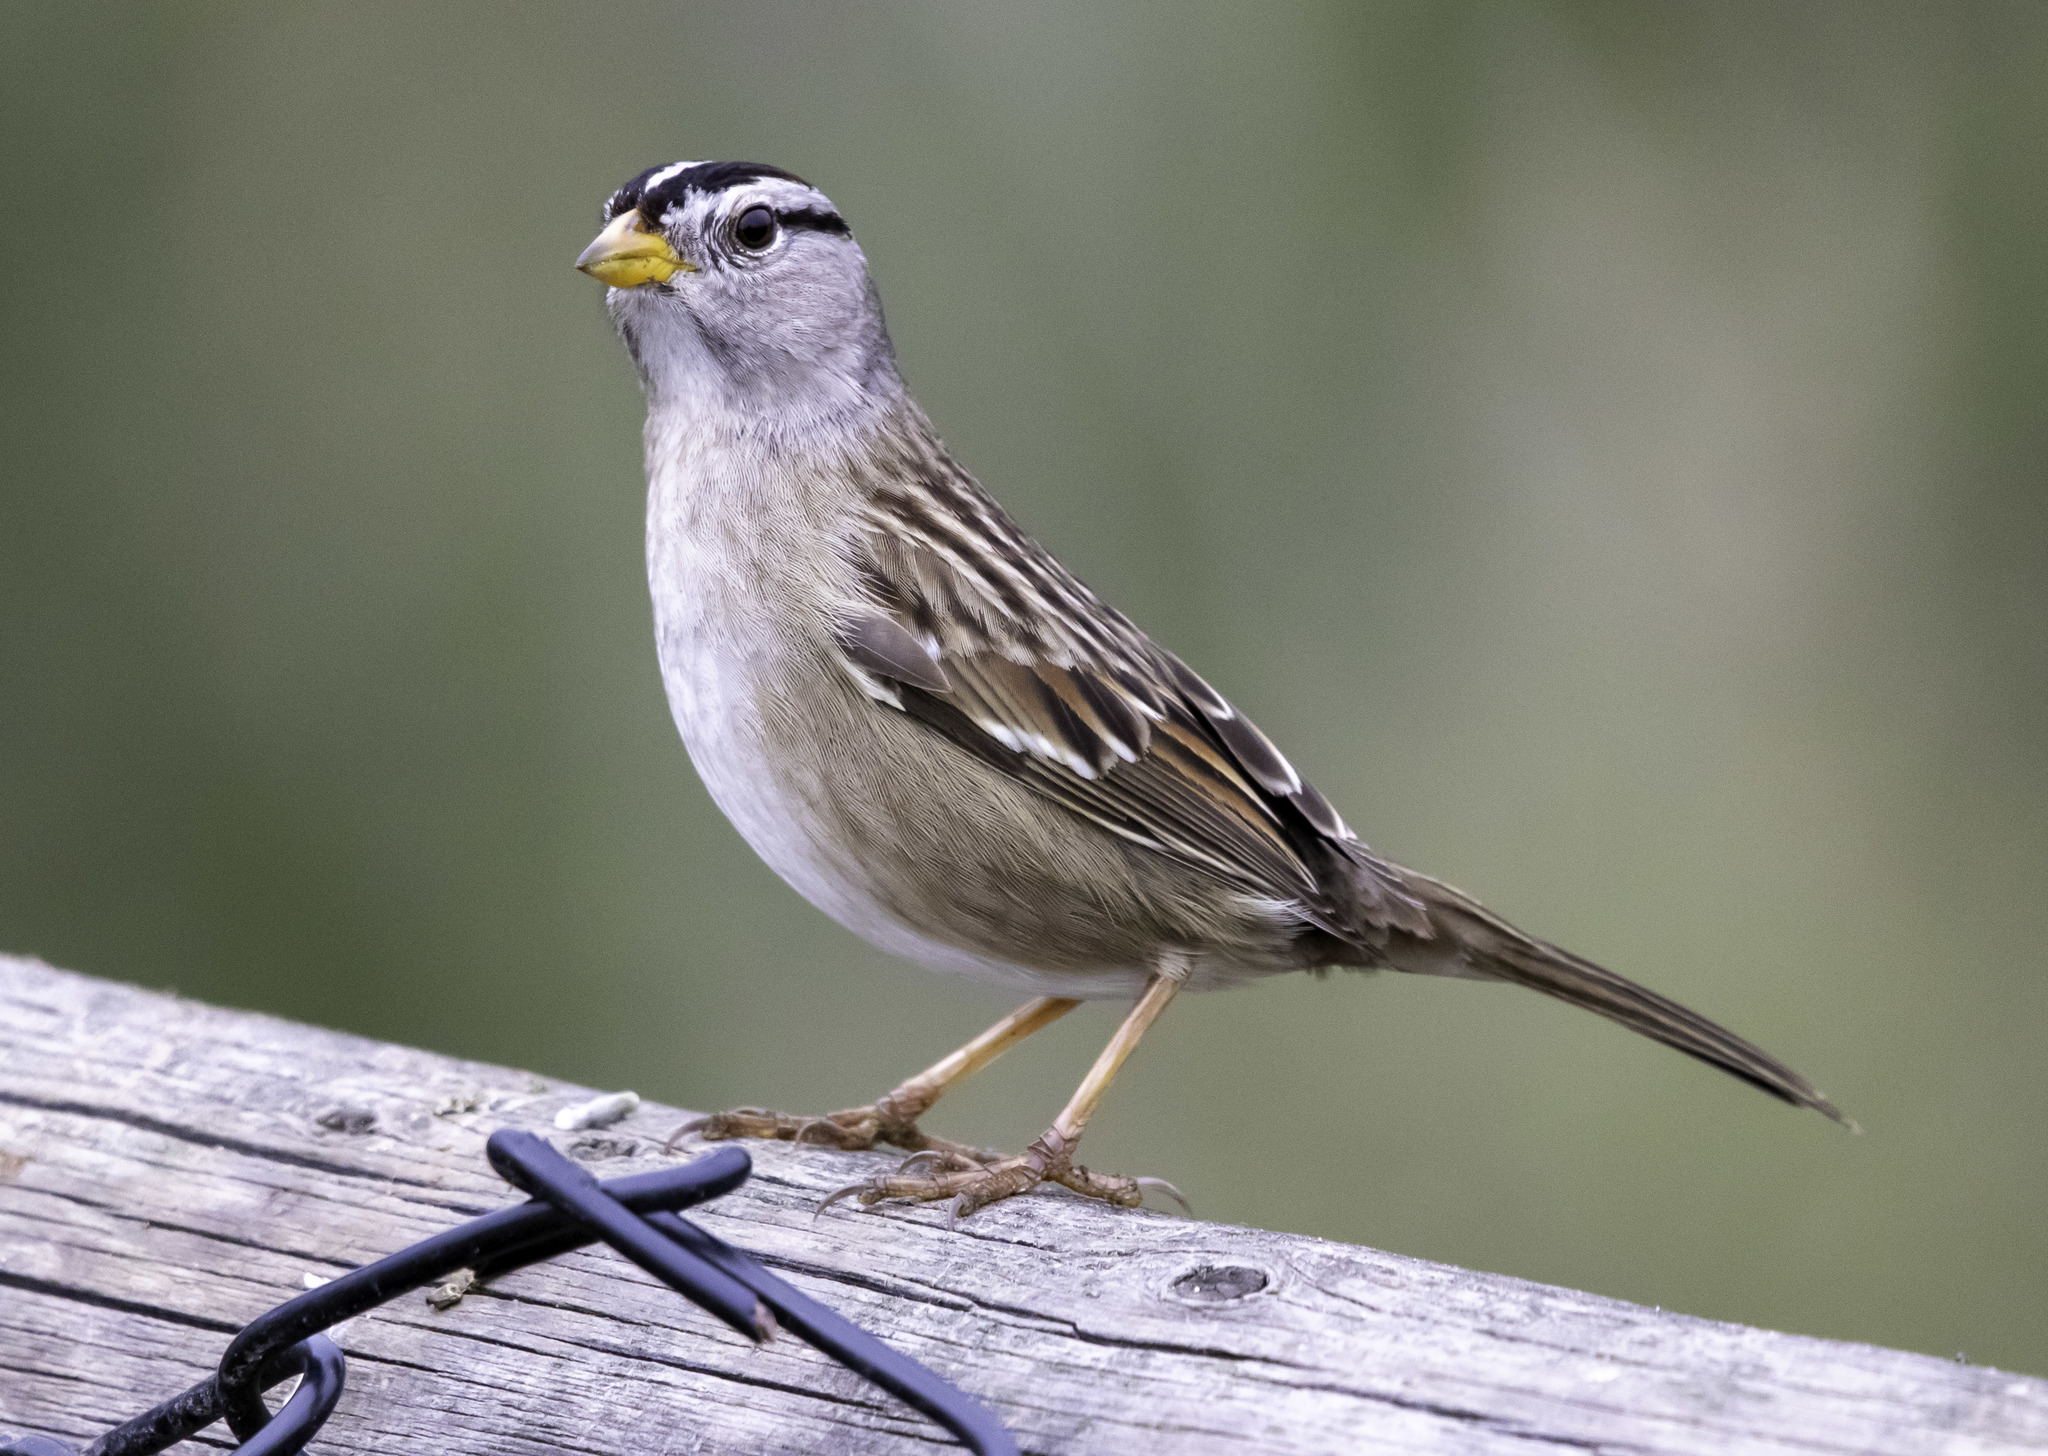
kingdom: Animalia
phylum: Chordata
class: Aves
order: Passeriformes
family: Passerellidae
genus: Zonotrichia
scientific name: Zonotrichia leucophrys
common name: White-crowned sparrow
